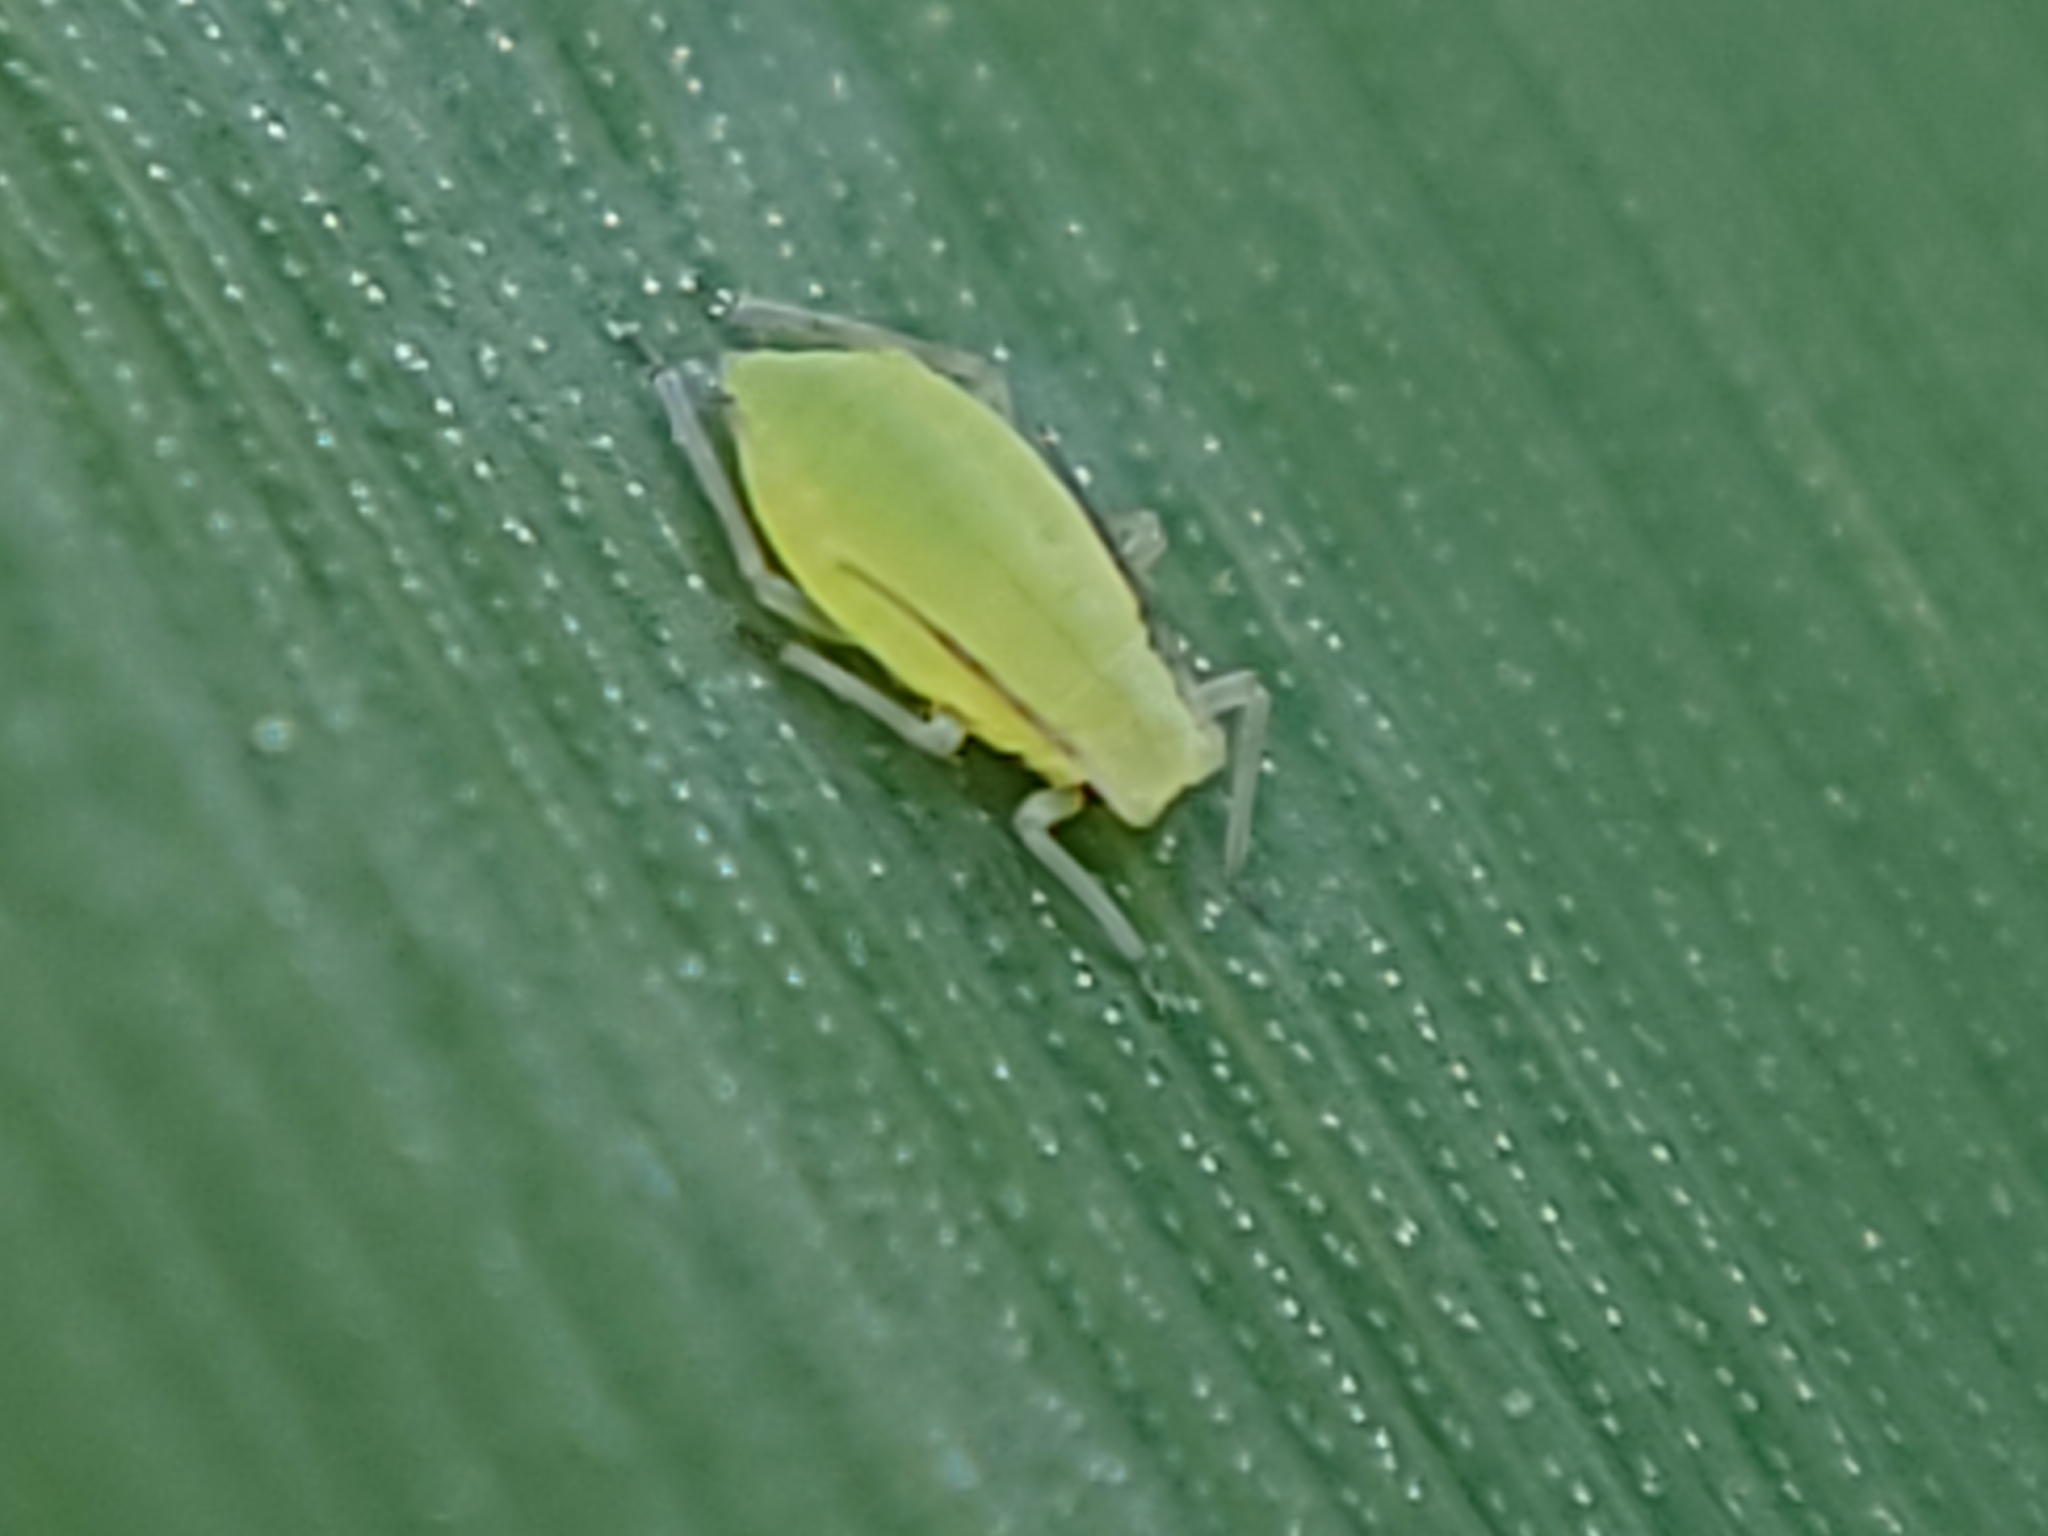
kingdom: Animalia
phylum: Arthropoda
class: Insecta
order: Hemiptera
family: Aphididae
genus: Metopolophium
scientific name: Metopolophium dirhodum
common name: Rose-grass aphid
